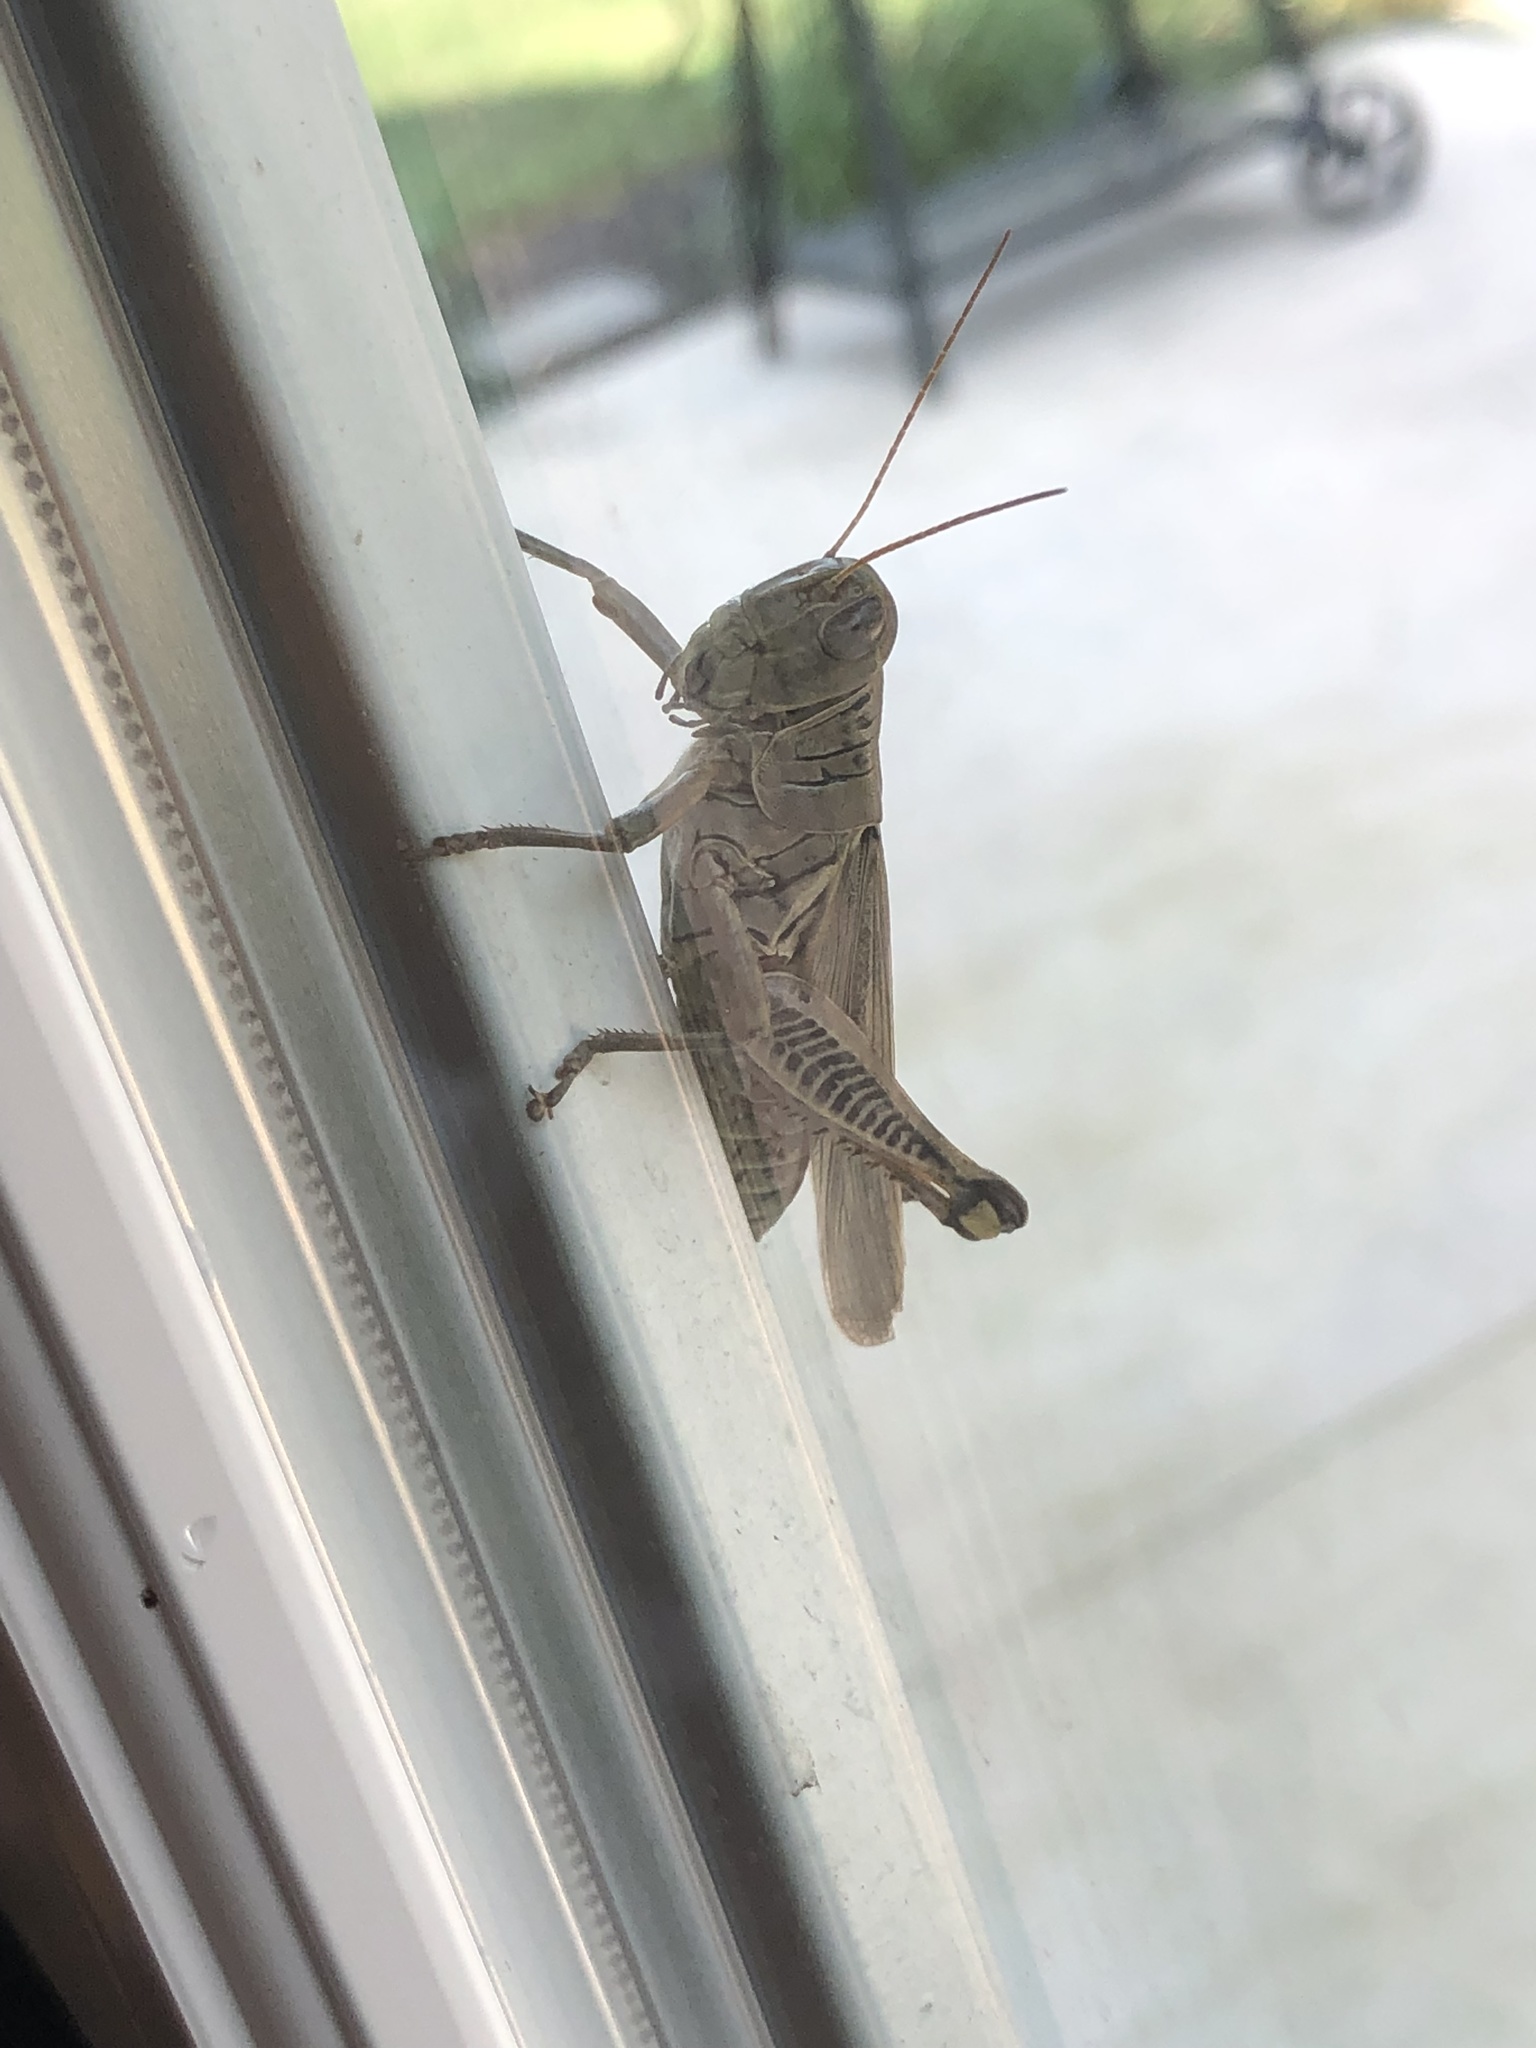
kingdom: Animalia
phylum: Arthropoda
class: Insecta
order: Orthoptera
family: Acrididae
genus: Melanoplus
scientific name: Melanoplus differentialis
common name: Differential grasshopper
